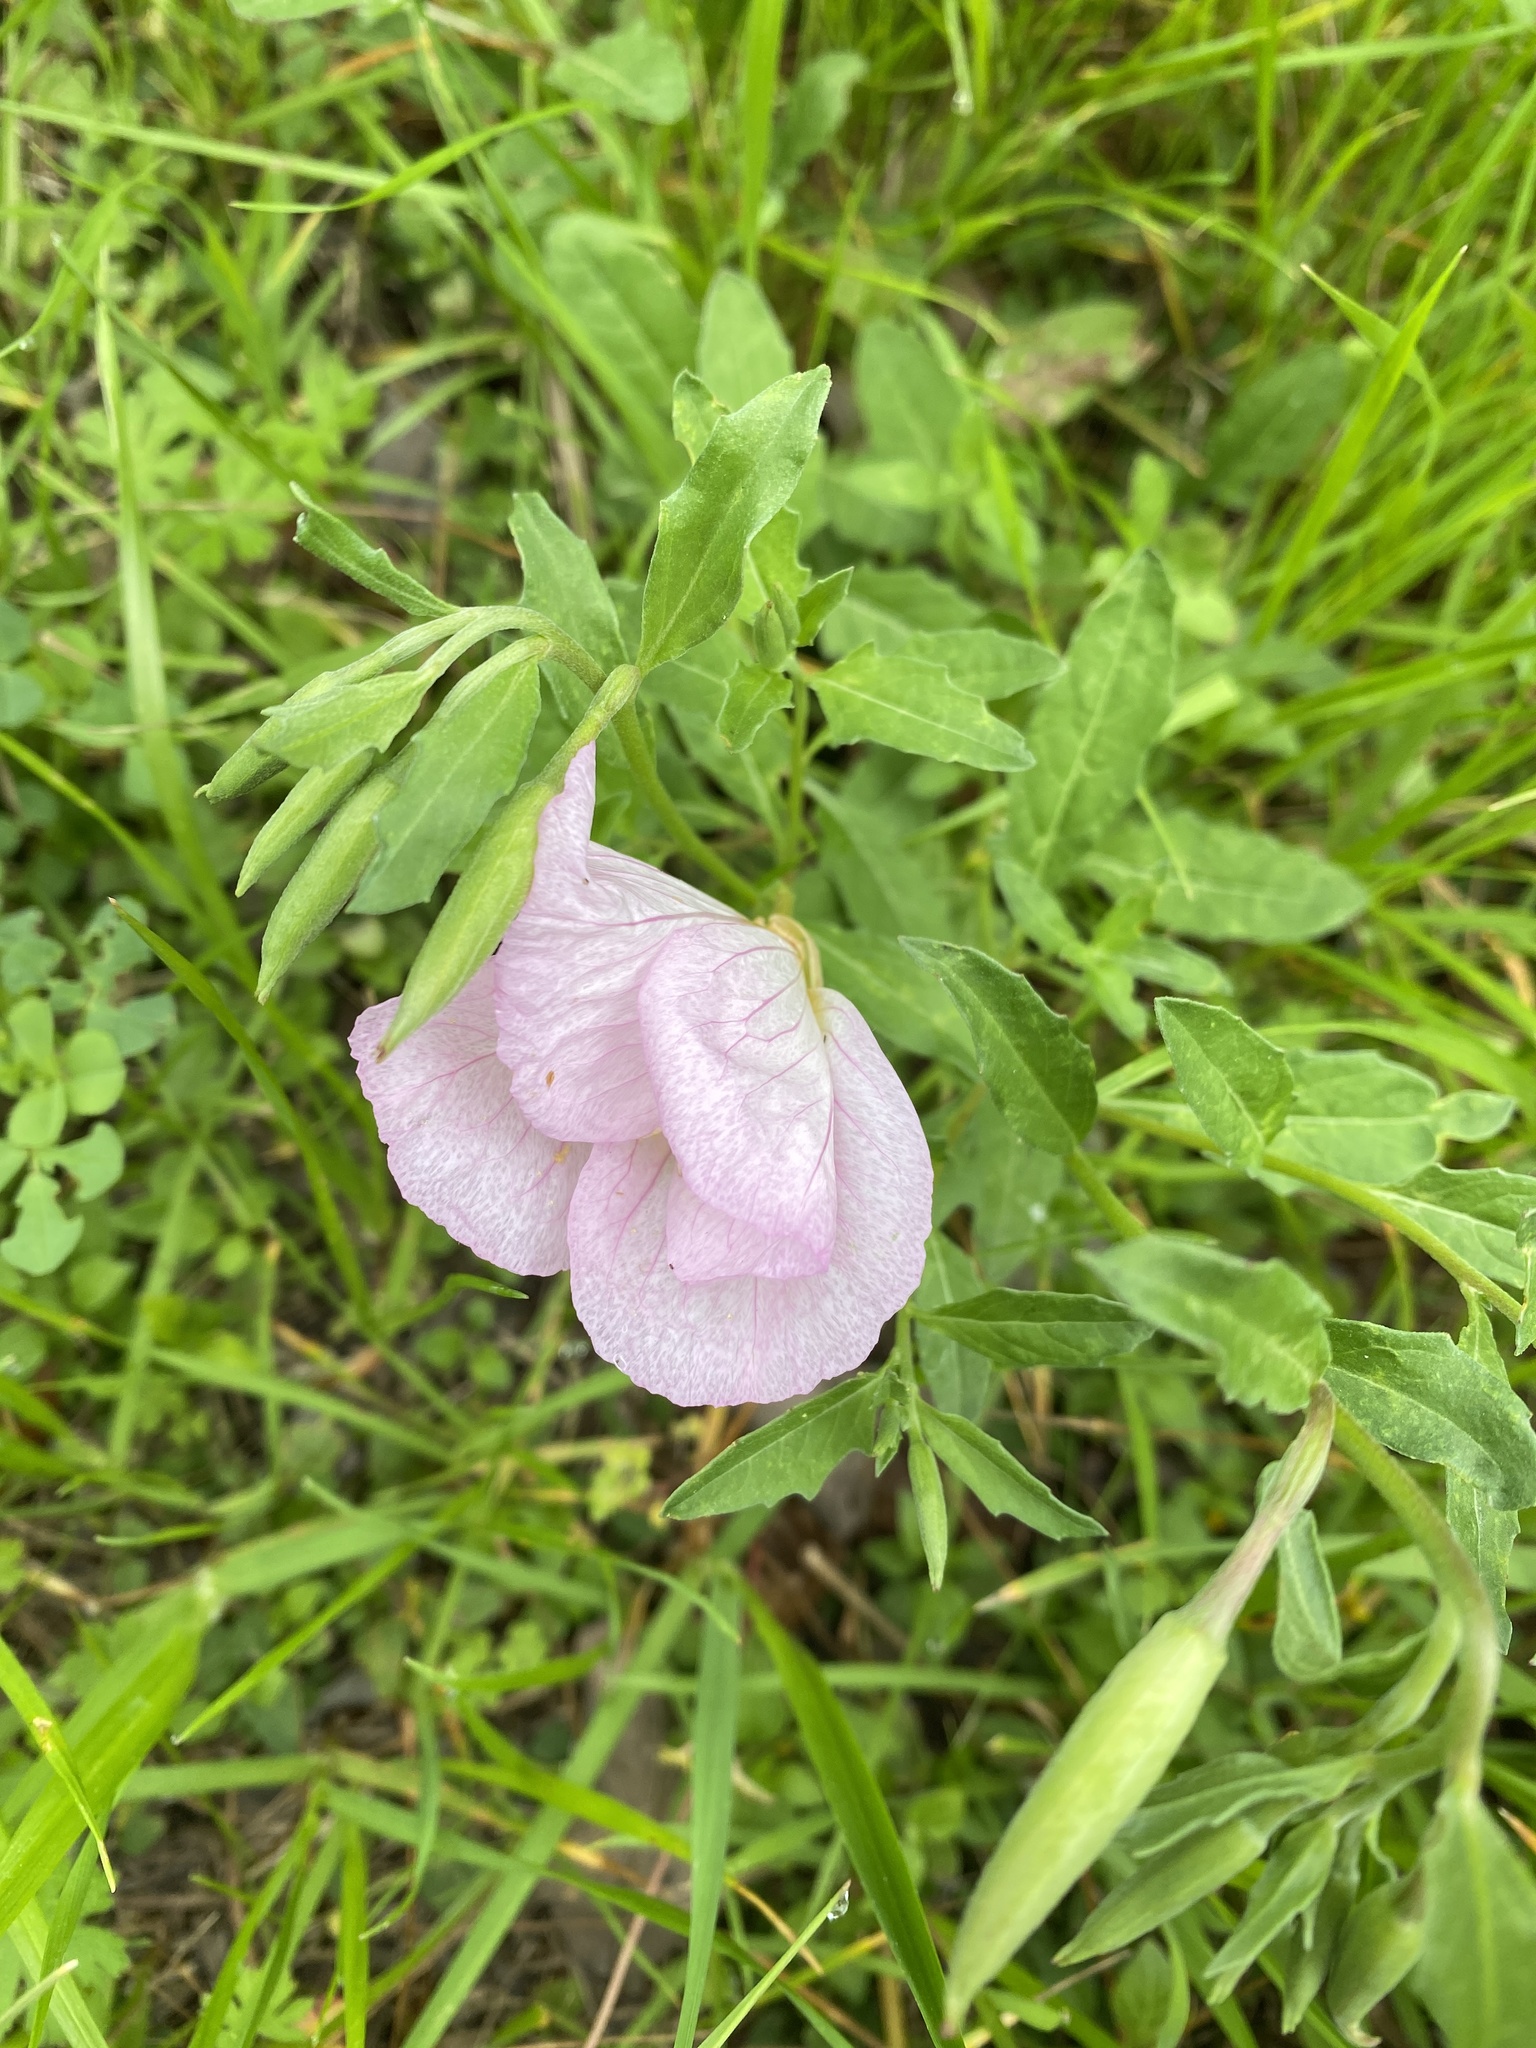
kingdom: Plantae
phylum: Tracheophyta
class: Magnoliopsida
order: Myrtales
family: Onagraceae
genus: Oenothera
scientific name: Oenothera speciosa
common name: White evening-primrose
